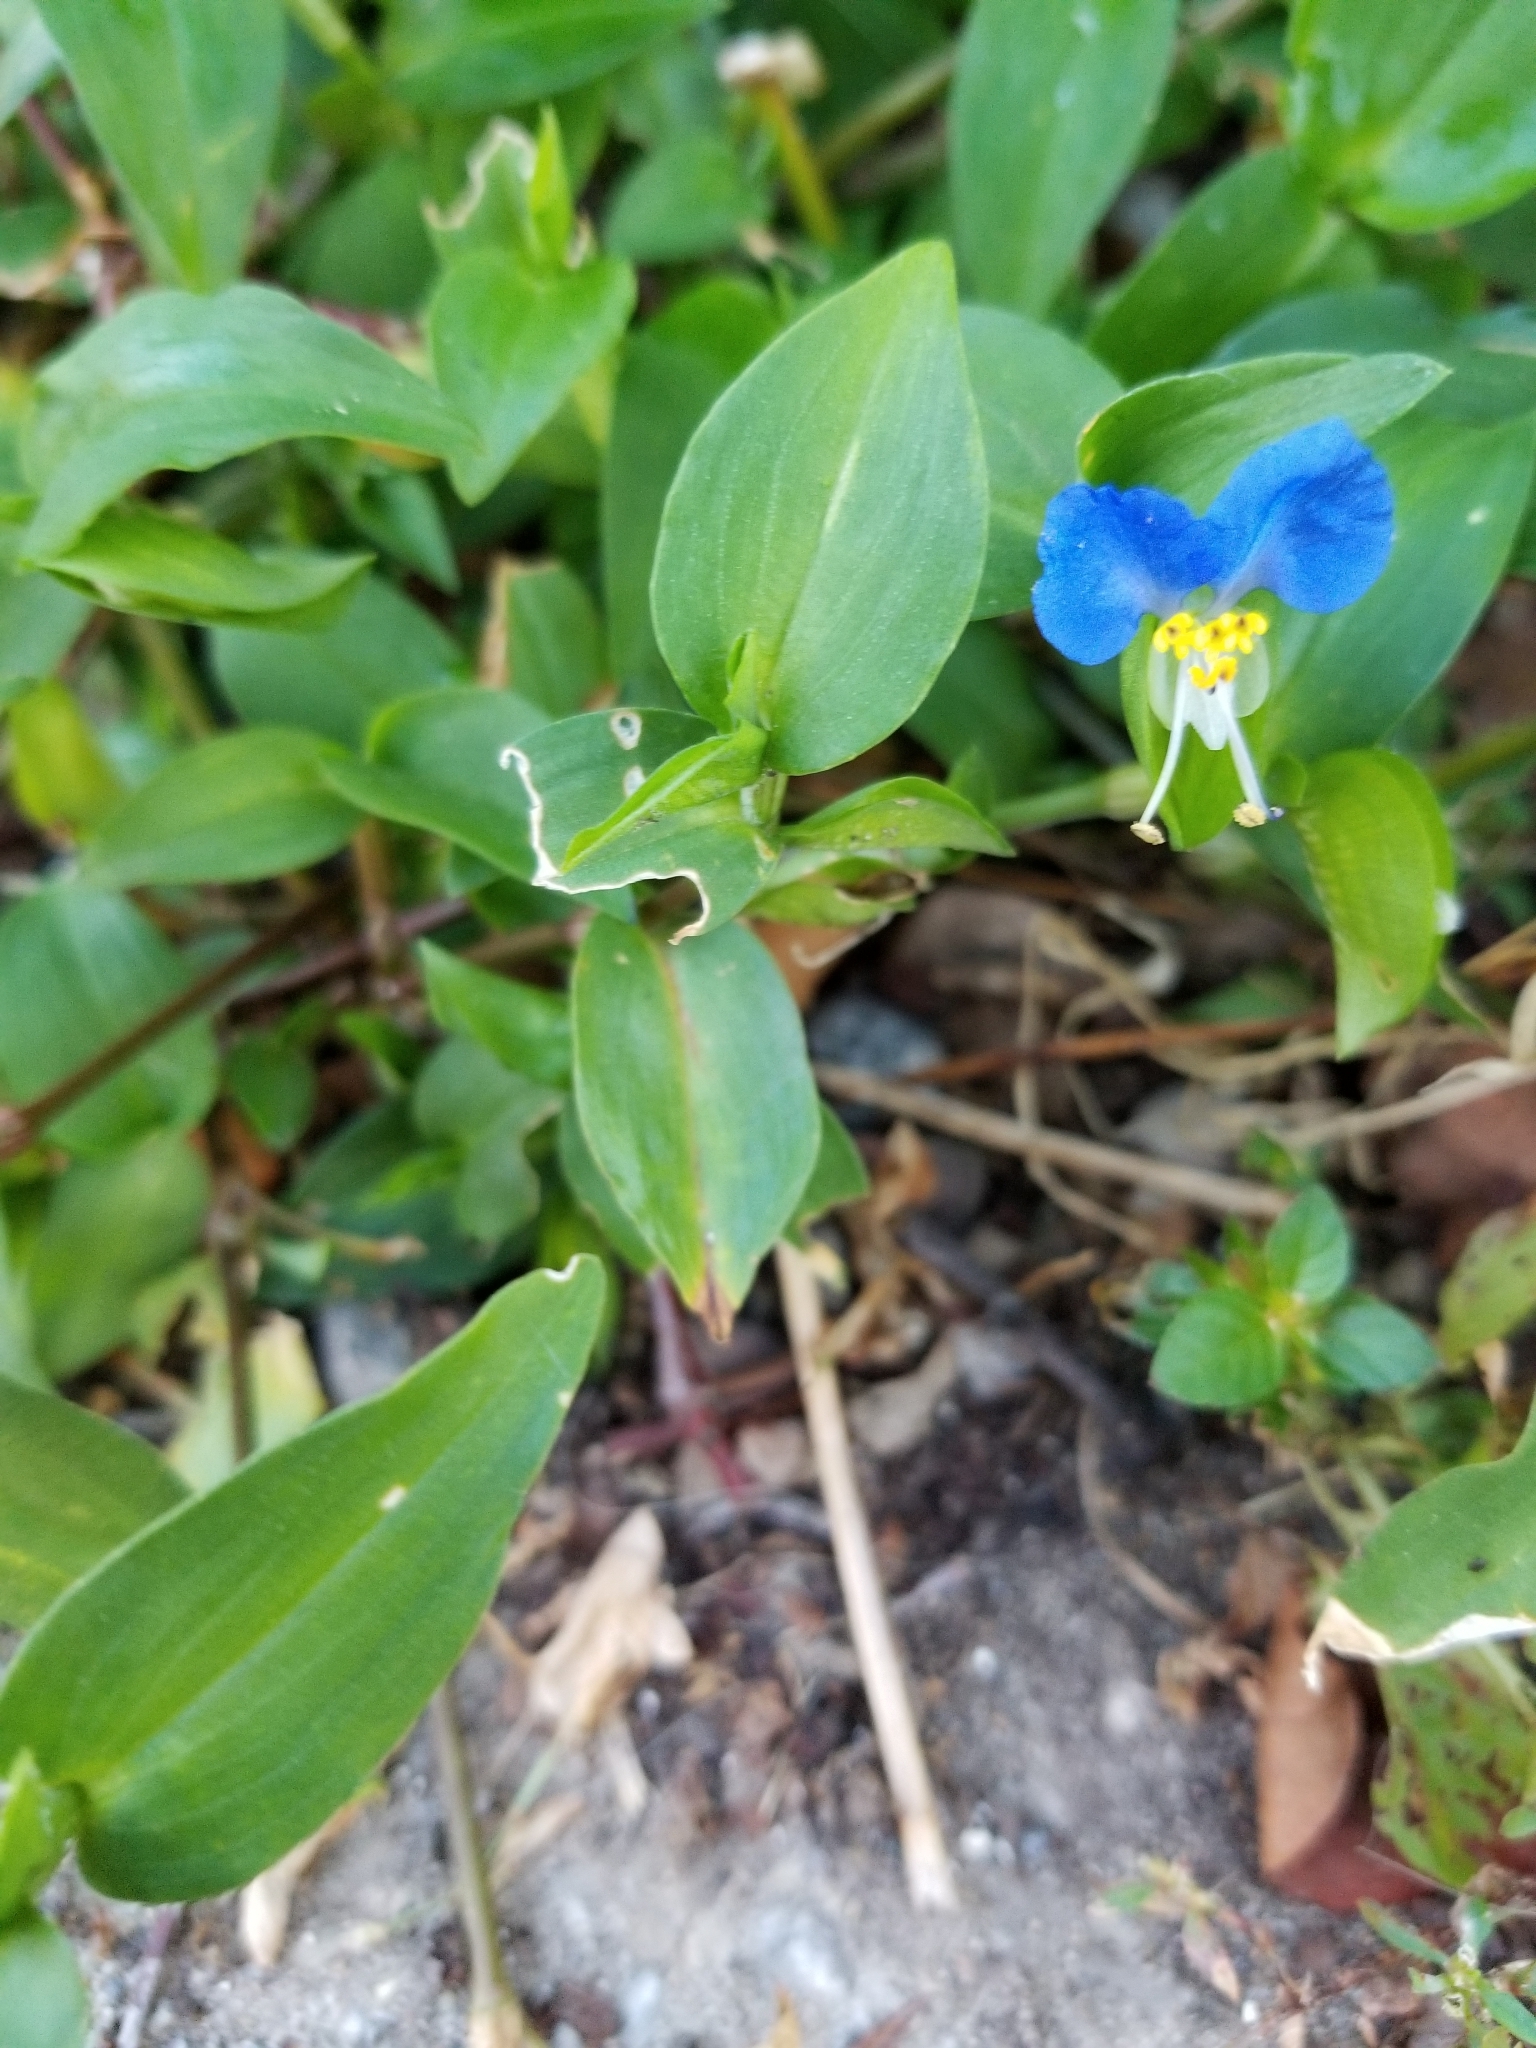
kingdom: Plantae
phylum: Tracheophyta
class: Liliopsida
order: Commelinales
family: Commelinaceae
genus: Commelina
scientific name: Commelina communis
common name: Asiatic dayflower
